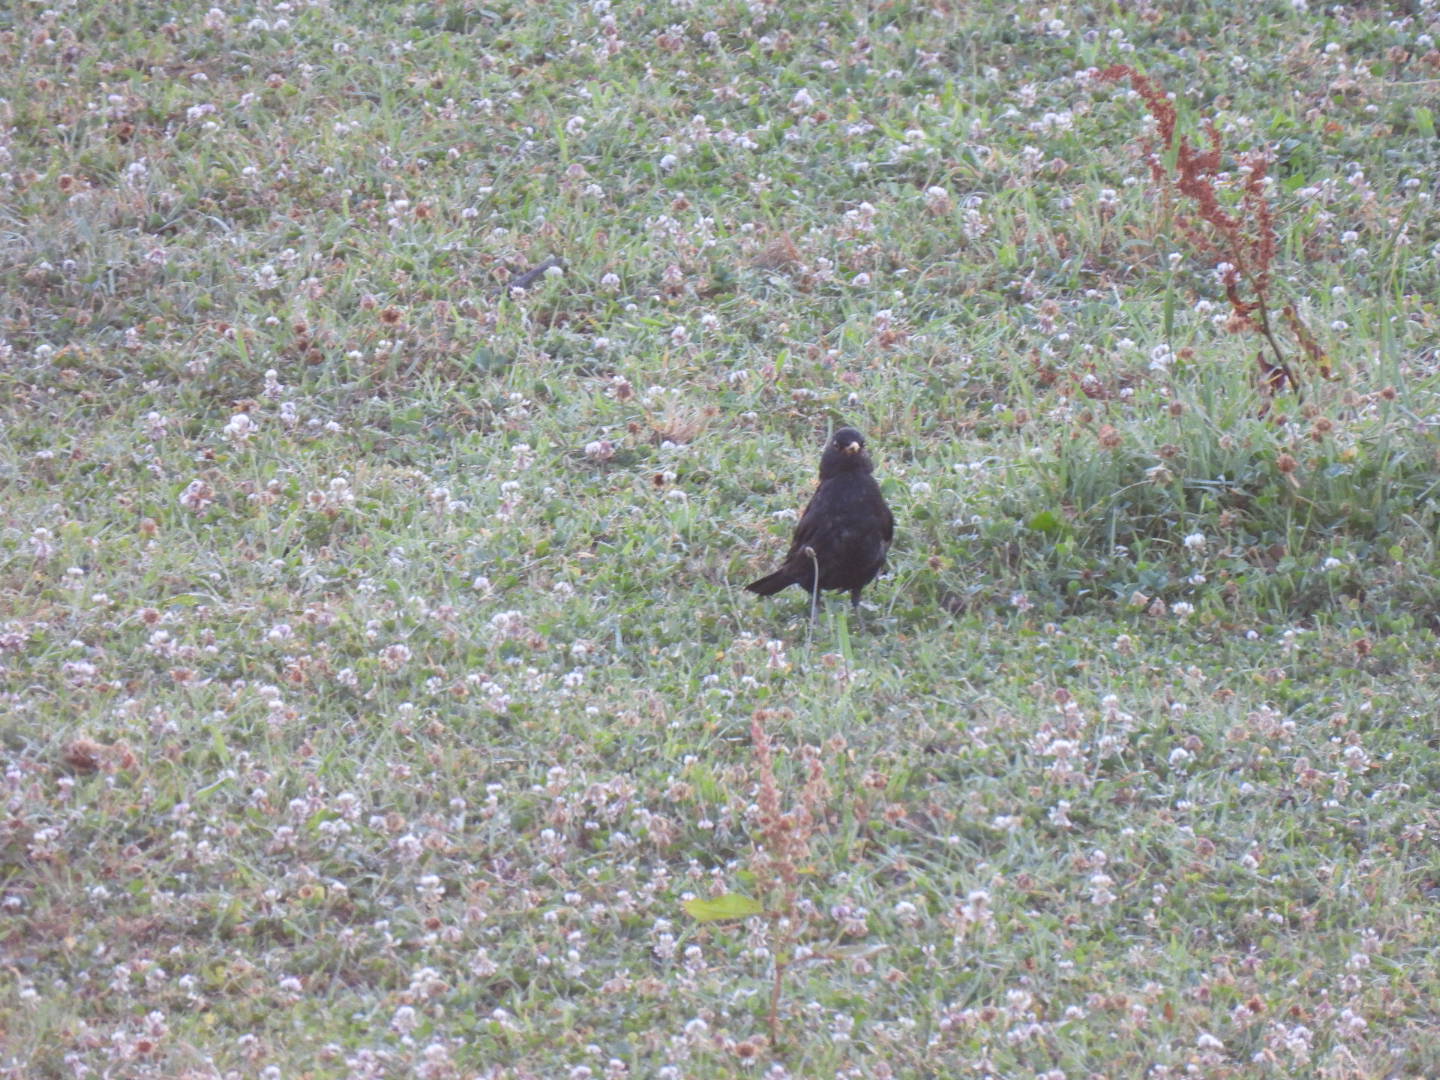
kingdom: Animalia
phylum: Chordata
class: Aves
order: Passeriformes
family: Turdidae
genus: Turdus
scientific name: Turdus merula
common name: Common blackbird
